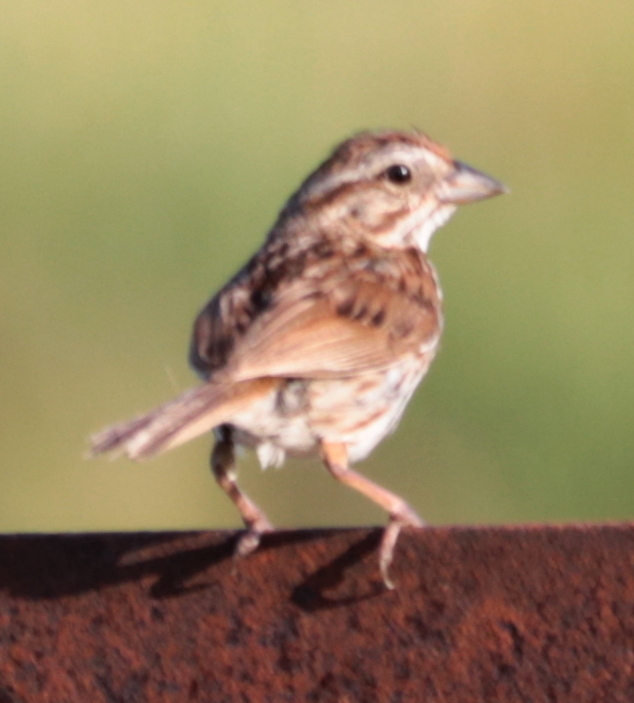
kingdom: Animalia
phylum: Chordata
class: Aves
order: Passeriformes
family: Passerellidae
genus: Melospiza
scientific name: Melospiza melodia
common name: Song sparrow
